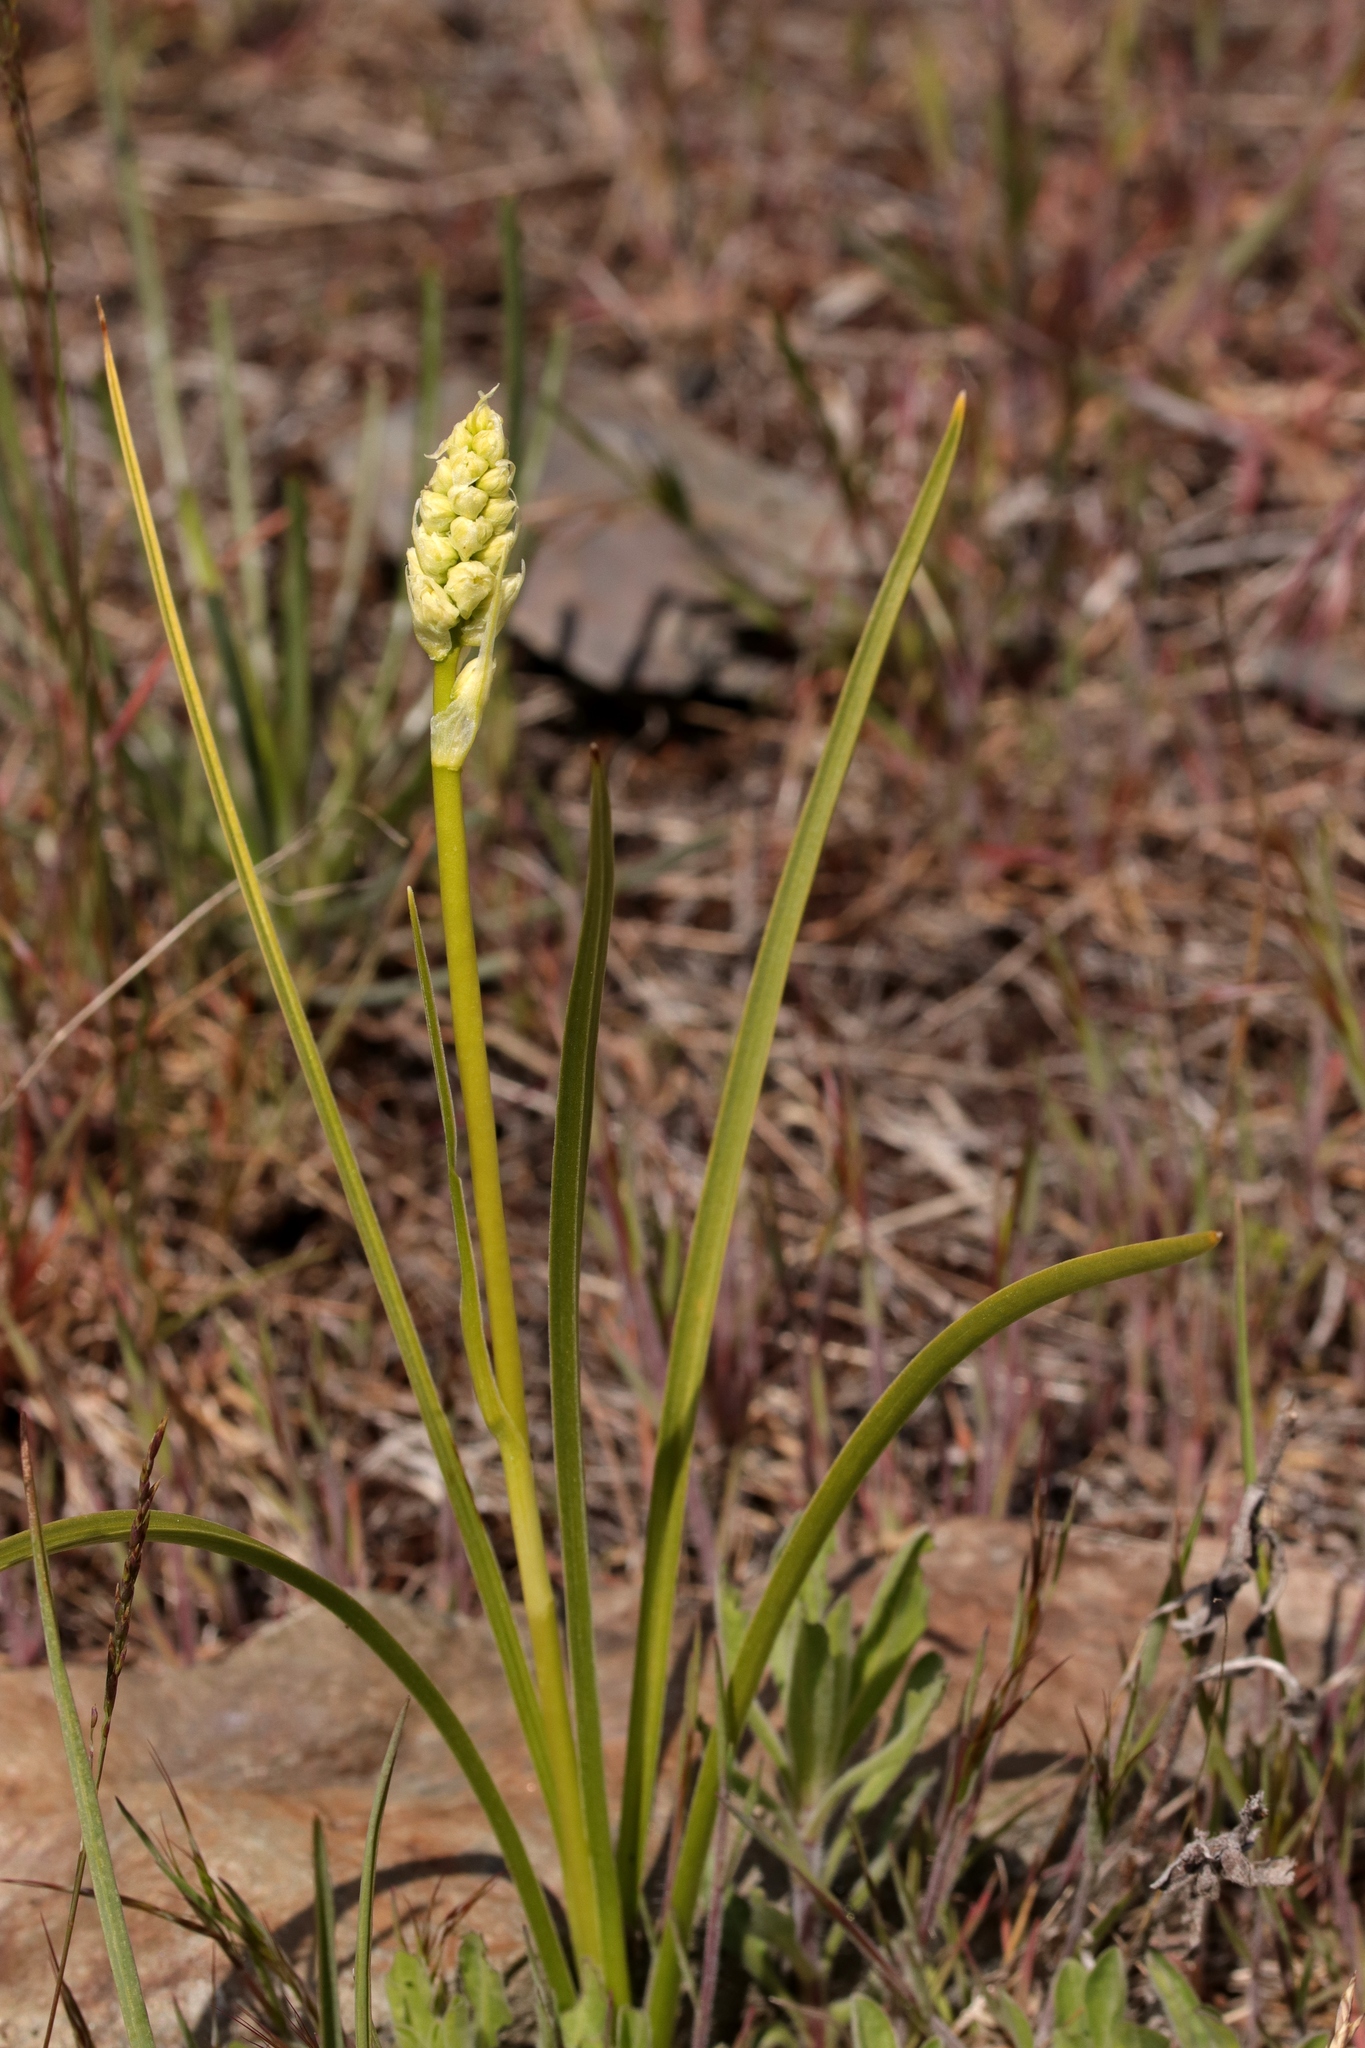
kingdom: Plantae
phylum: Tracheophyta
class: Liliopsida
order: Liliales
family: Melanthiaceae
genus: Toxicoscordion
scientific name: Toxicoscordion venenosum
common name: Meadow death camas
